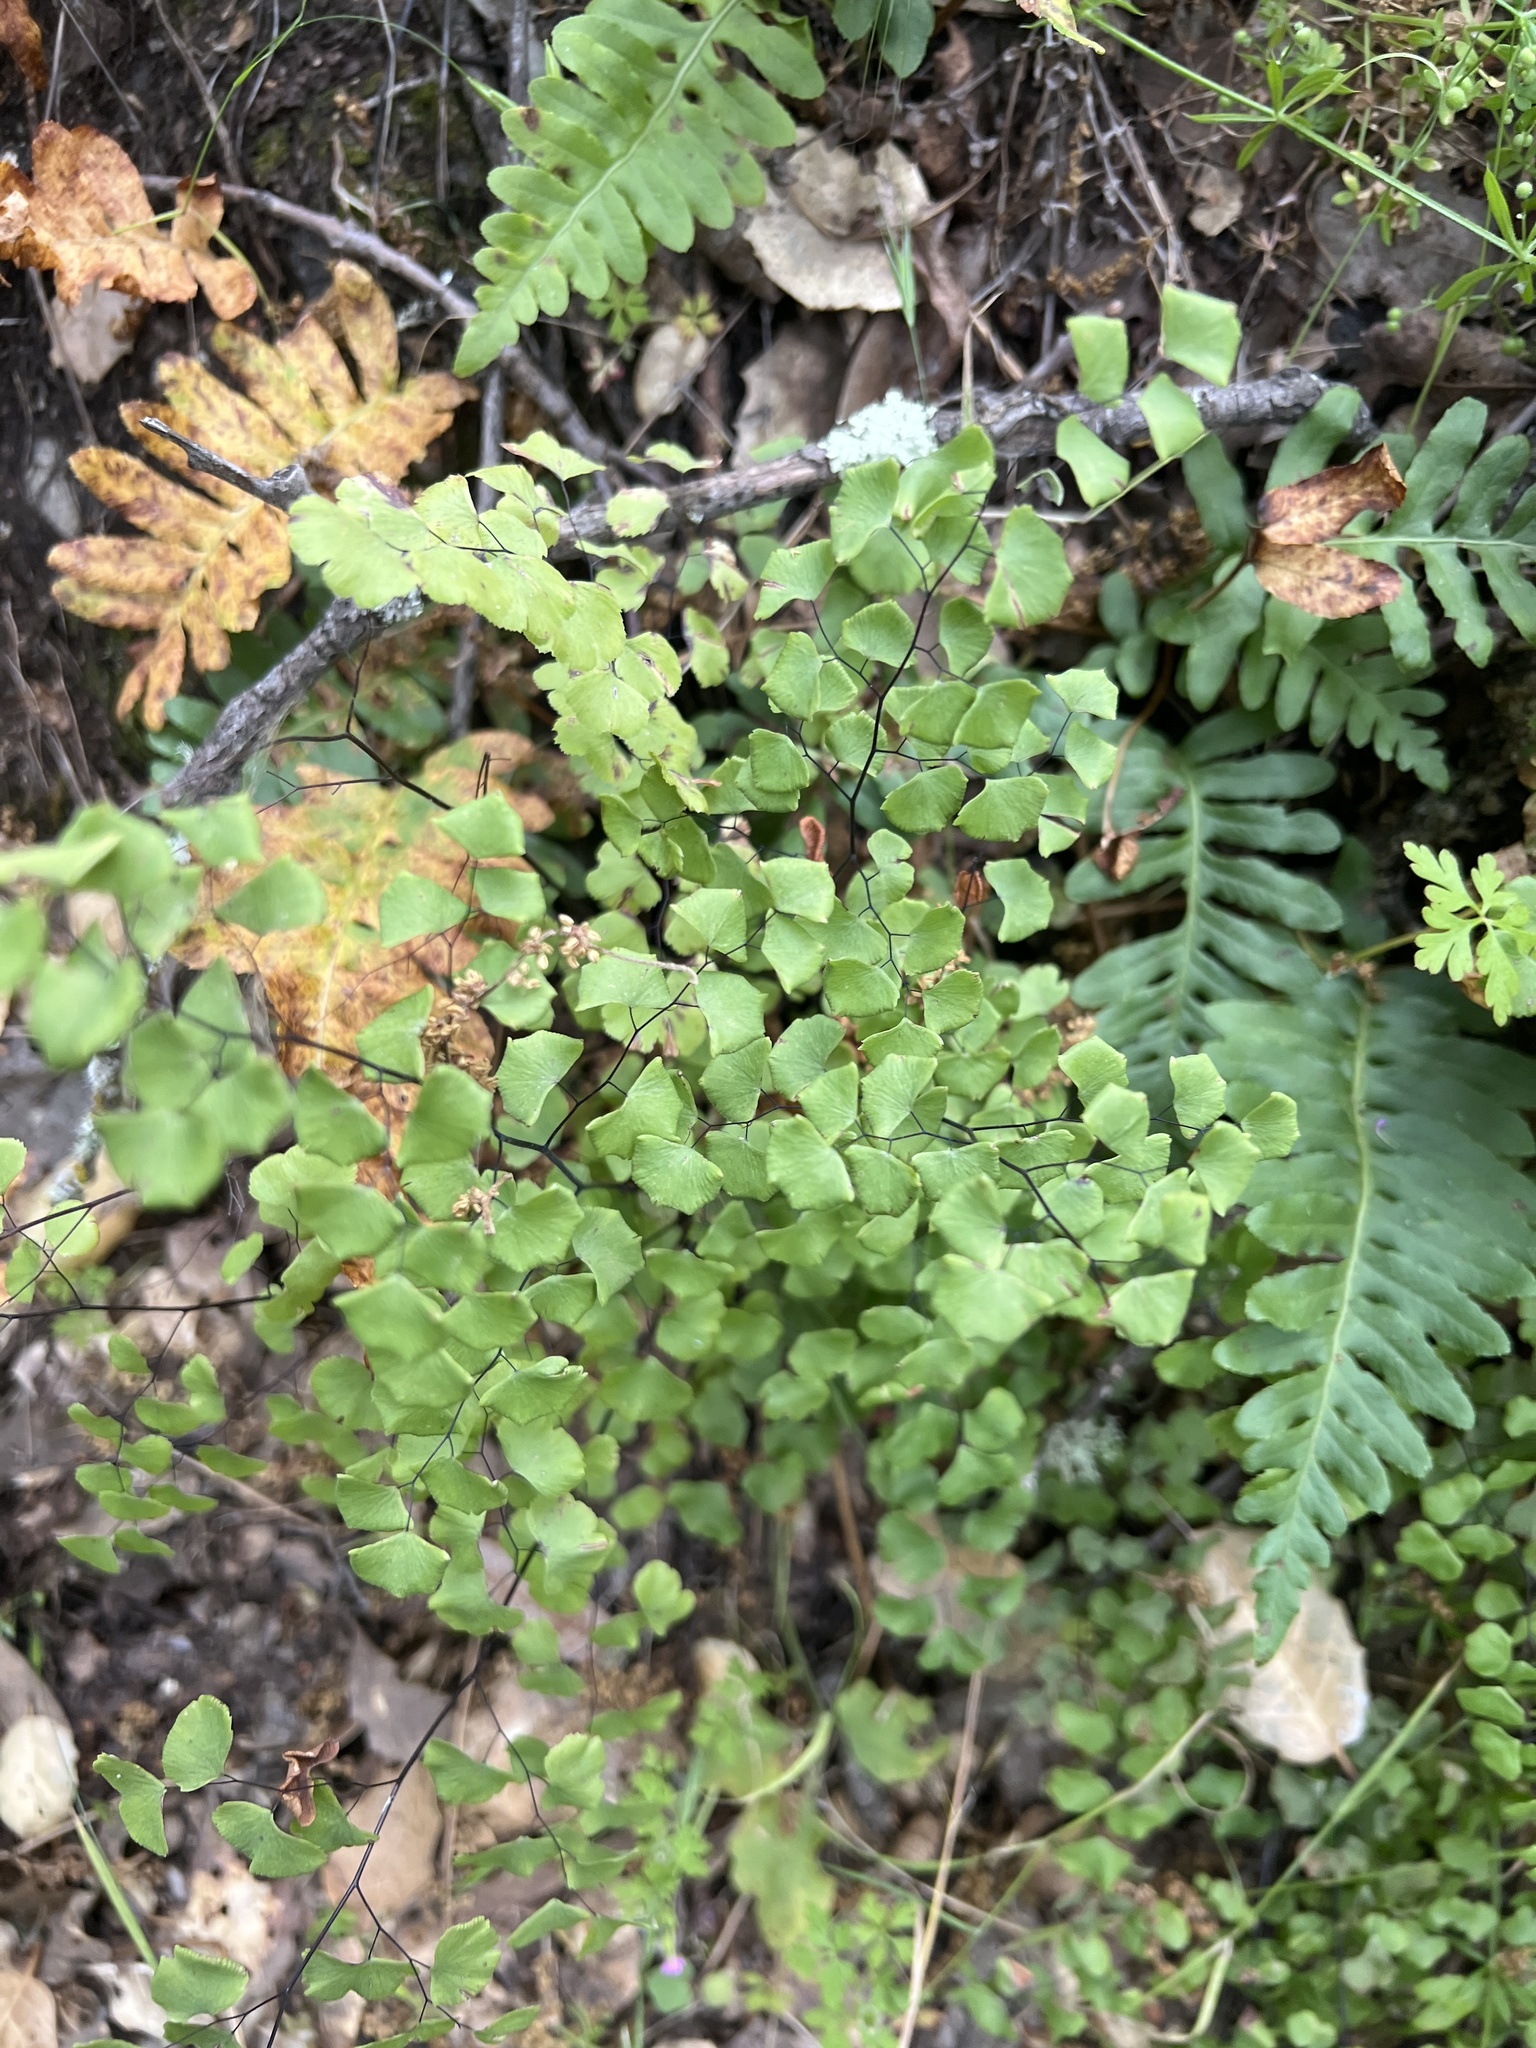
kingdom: Plantae
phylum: Tracheophyta
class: Polypodiopsida
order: Polypodiales
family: Pteridaceae
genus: Adiantum
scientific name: Adiantum jordanii
